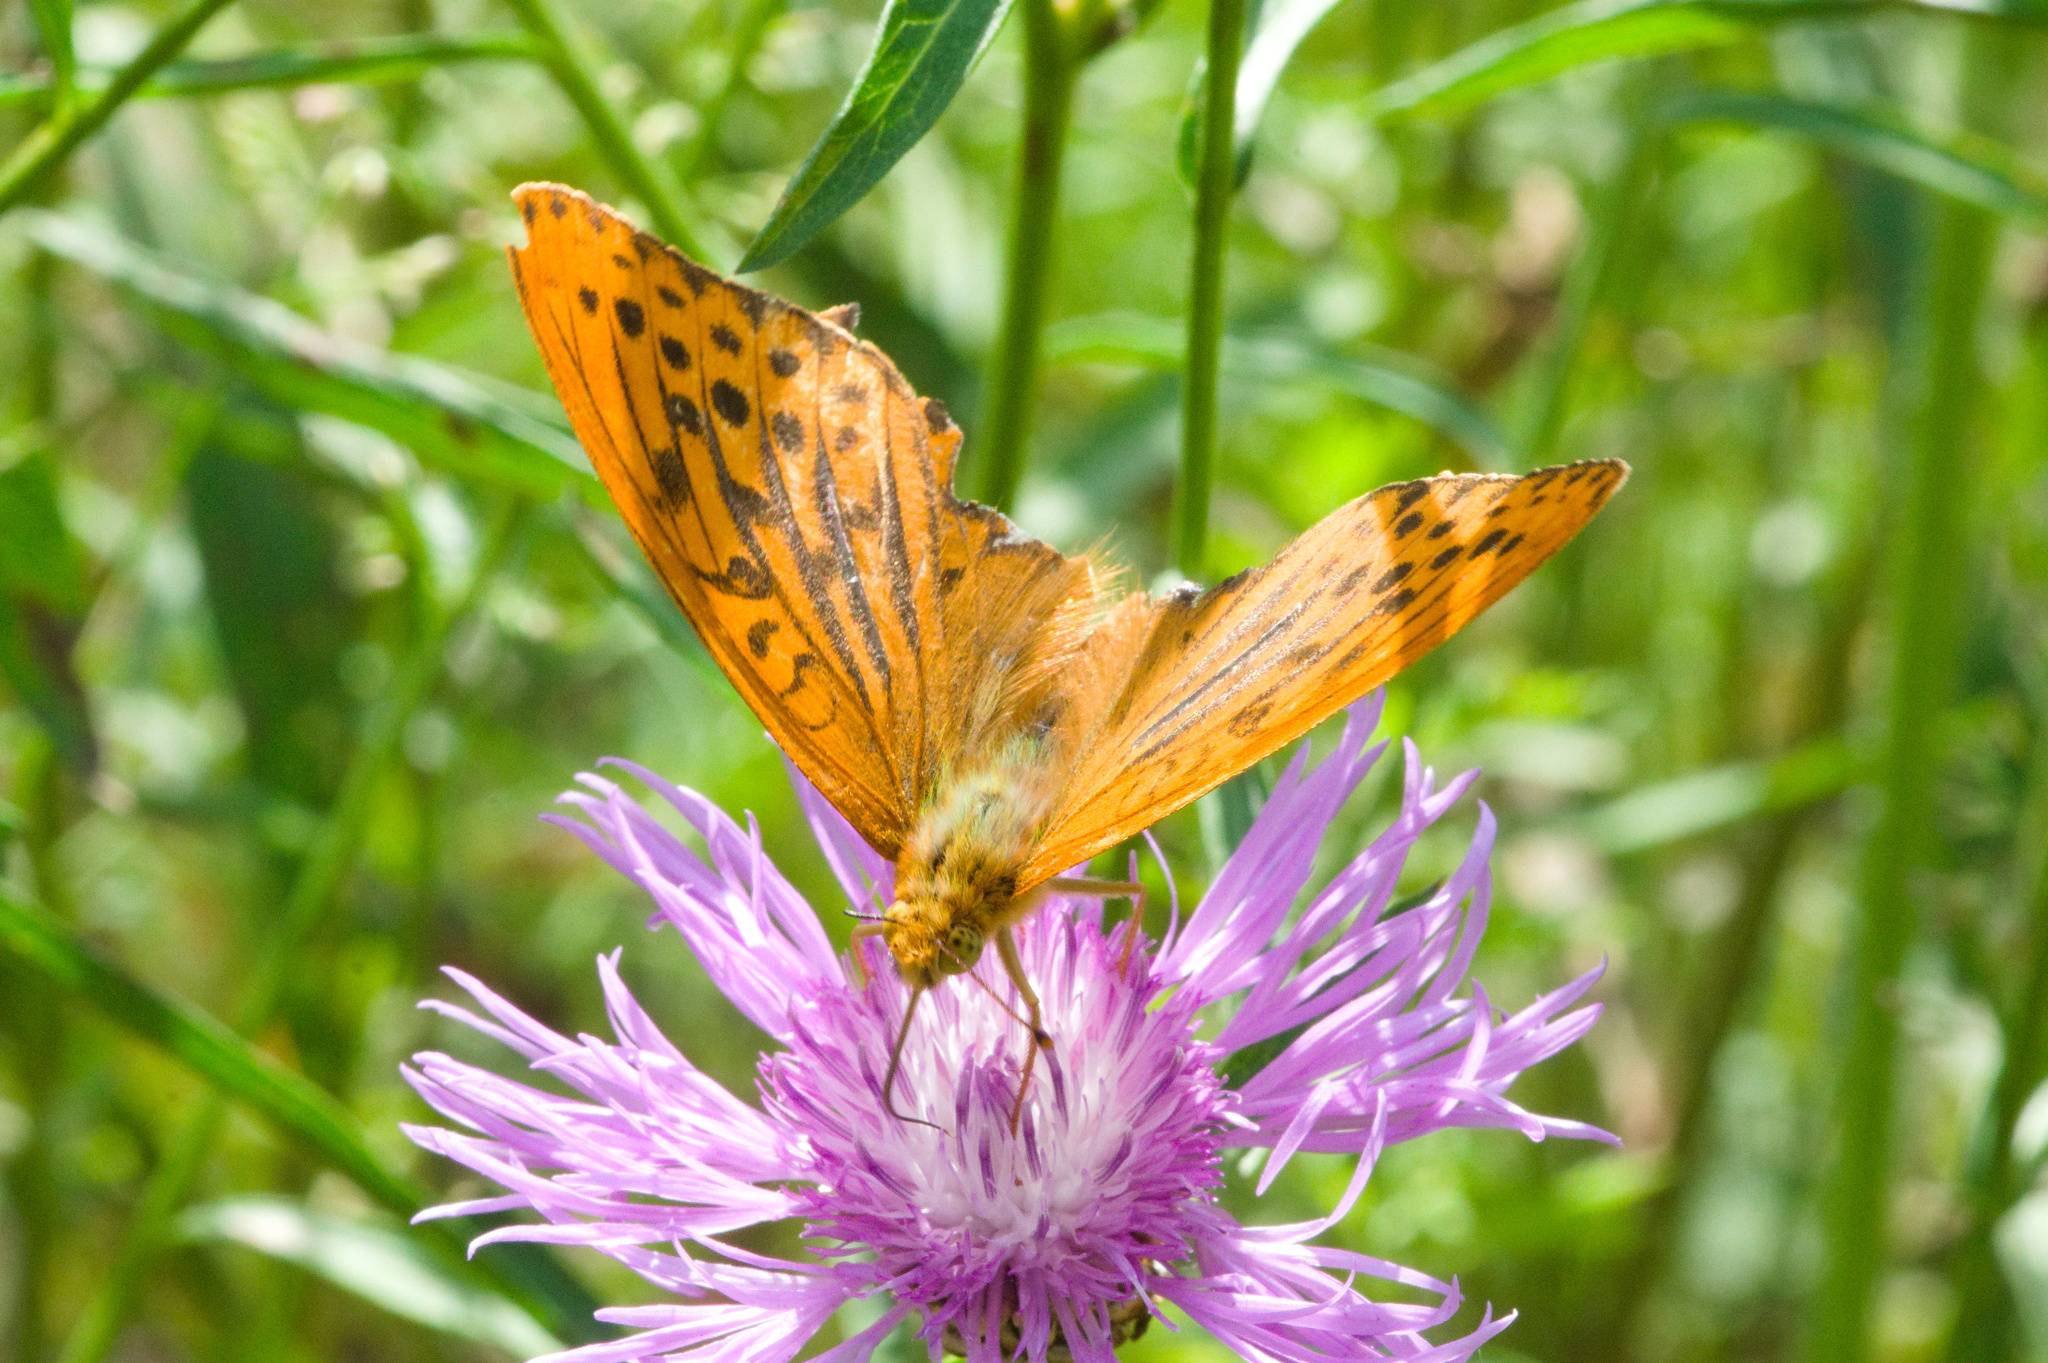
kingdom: Animalia
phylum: Arthropoda
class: Insecta
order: Lepidoptera
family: Nymphalidae
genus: Argynnis
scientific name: Argynnis paphia
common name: Silver-washed fritillary
